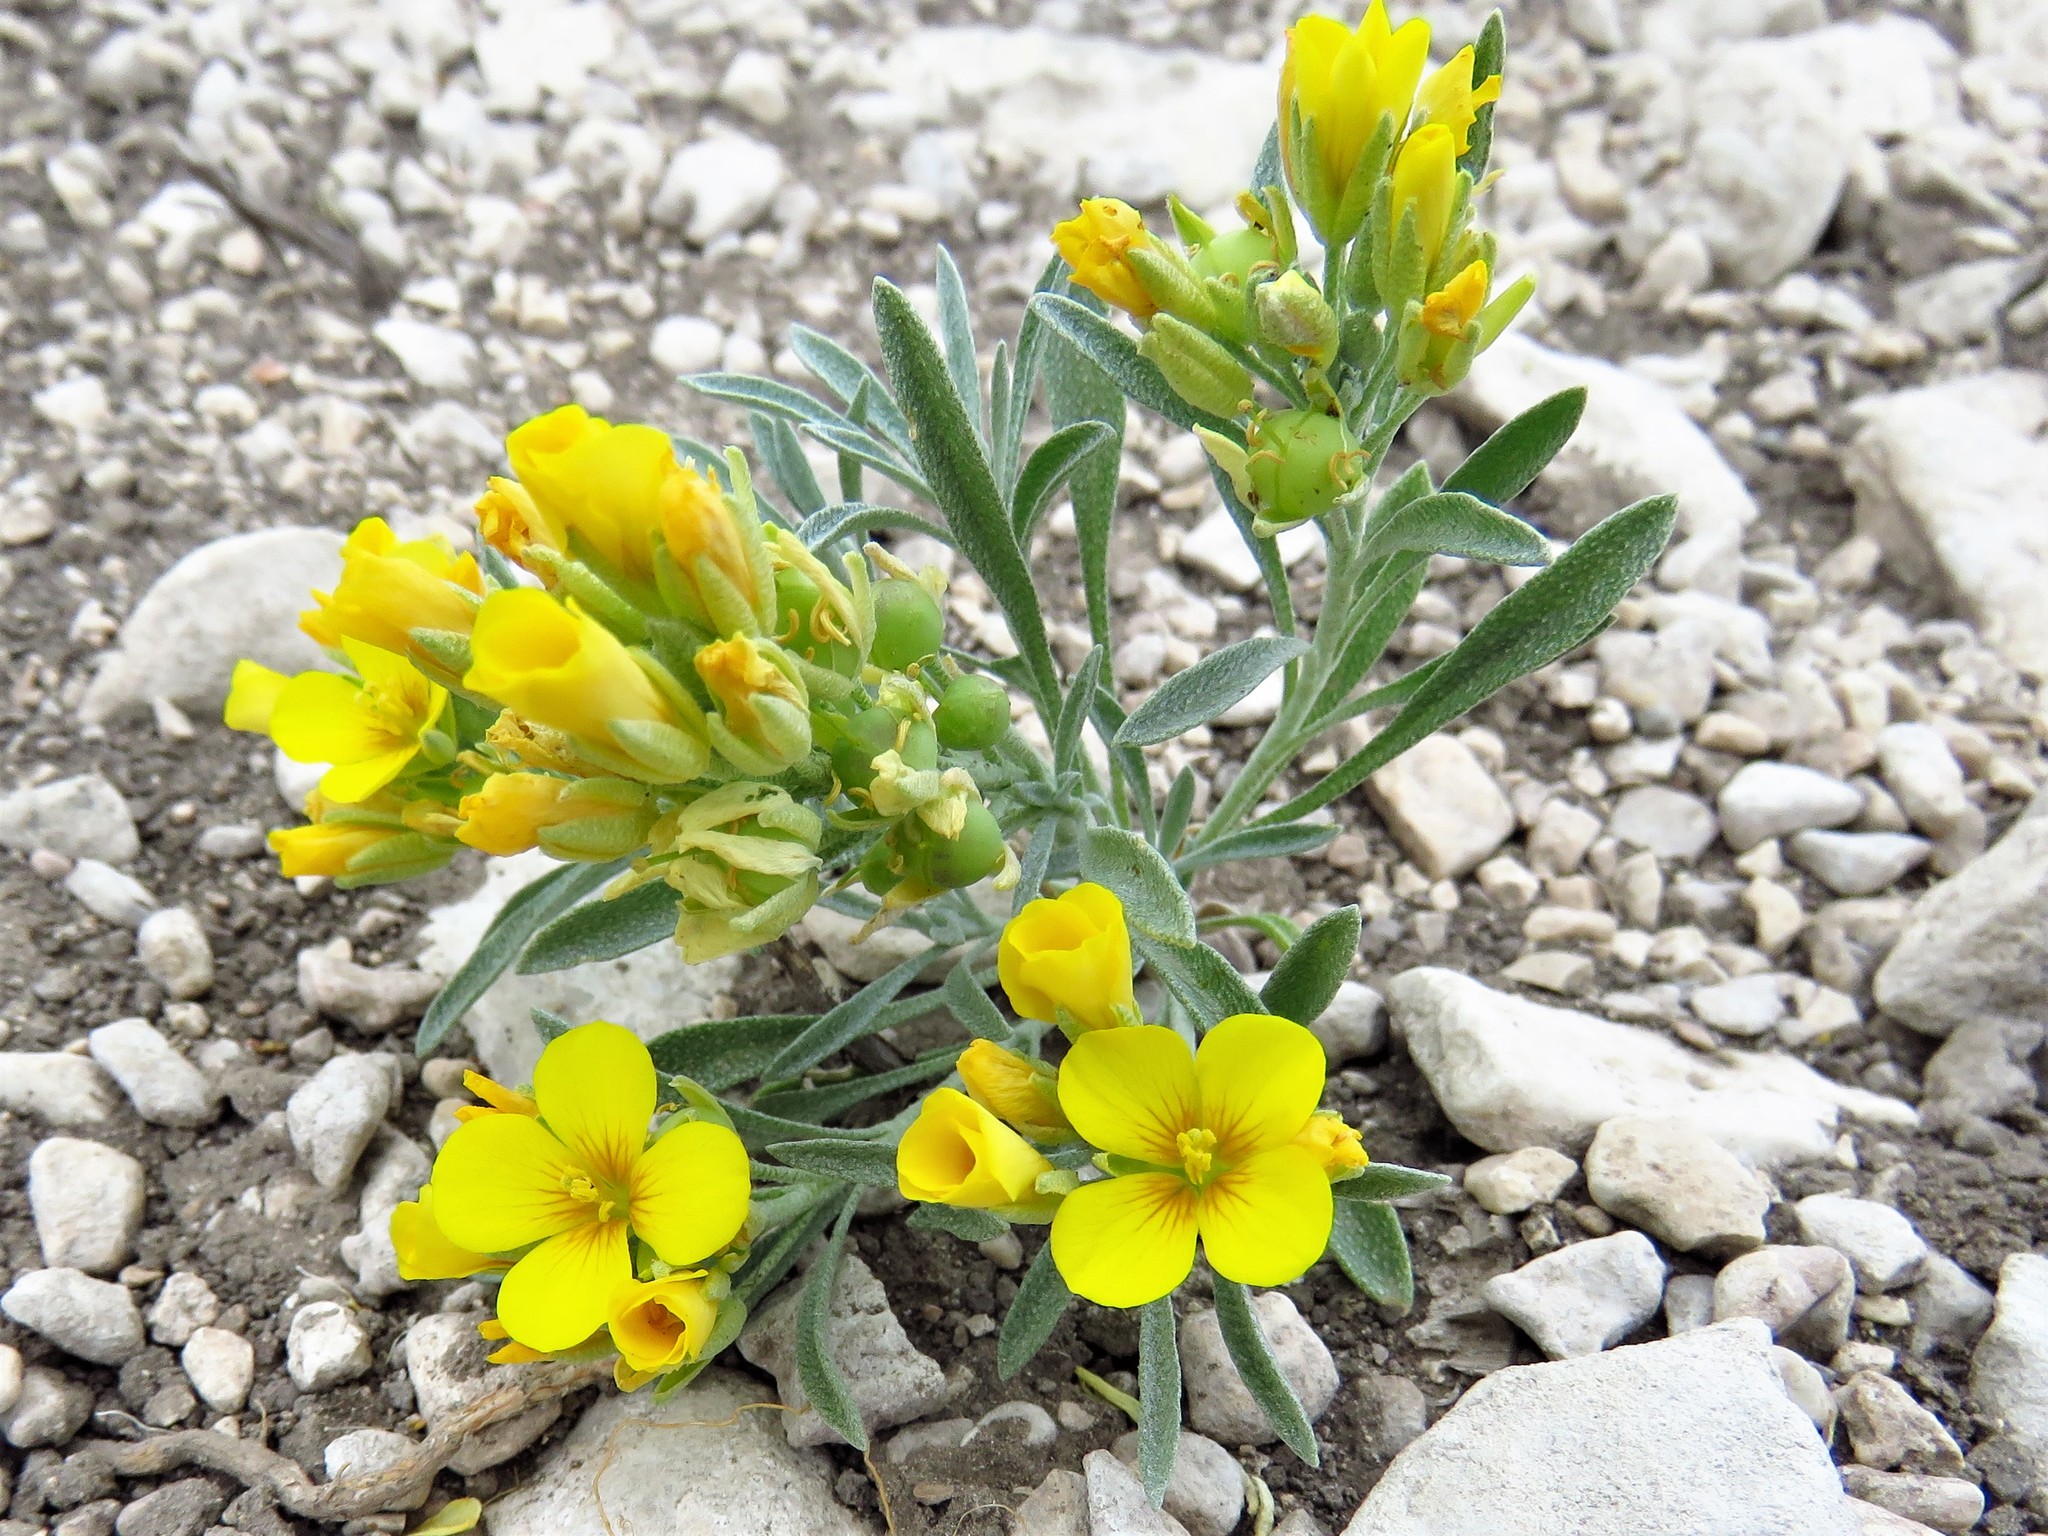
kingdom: Plantae
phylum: Tracheophyta
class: Magnoliopsida
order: Brassicales
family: Brassicaceae
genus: Physaria
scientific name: Physaria fendleri
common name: Fendler's bladderpod
